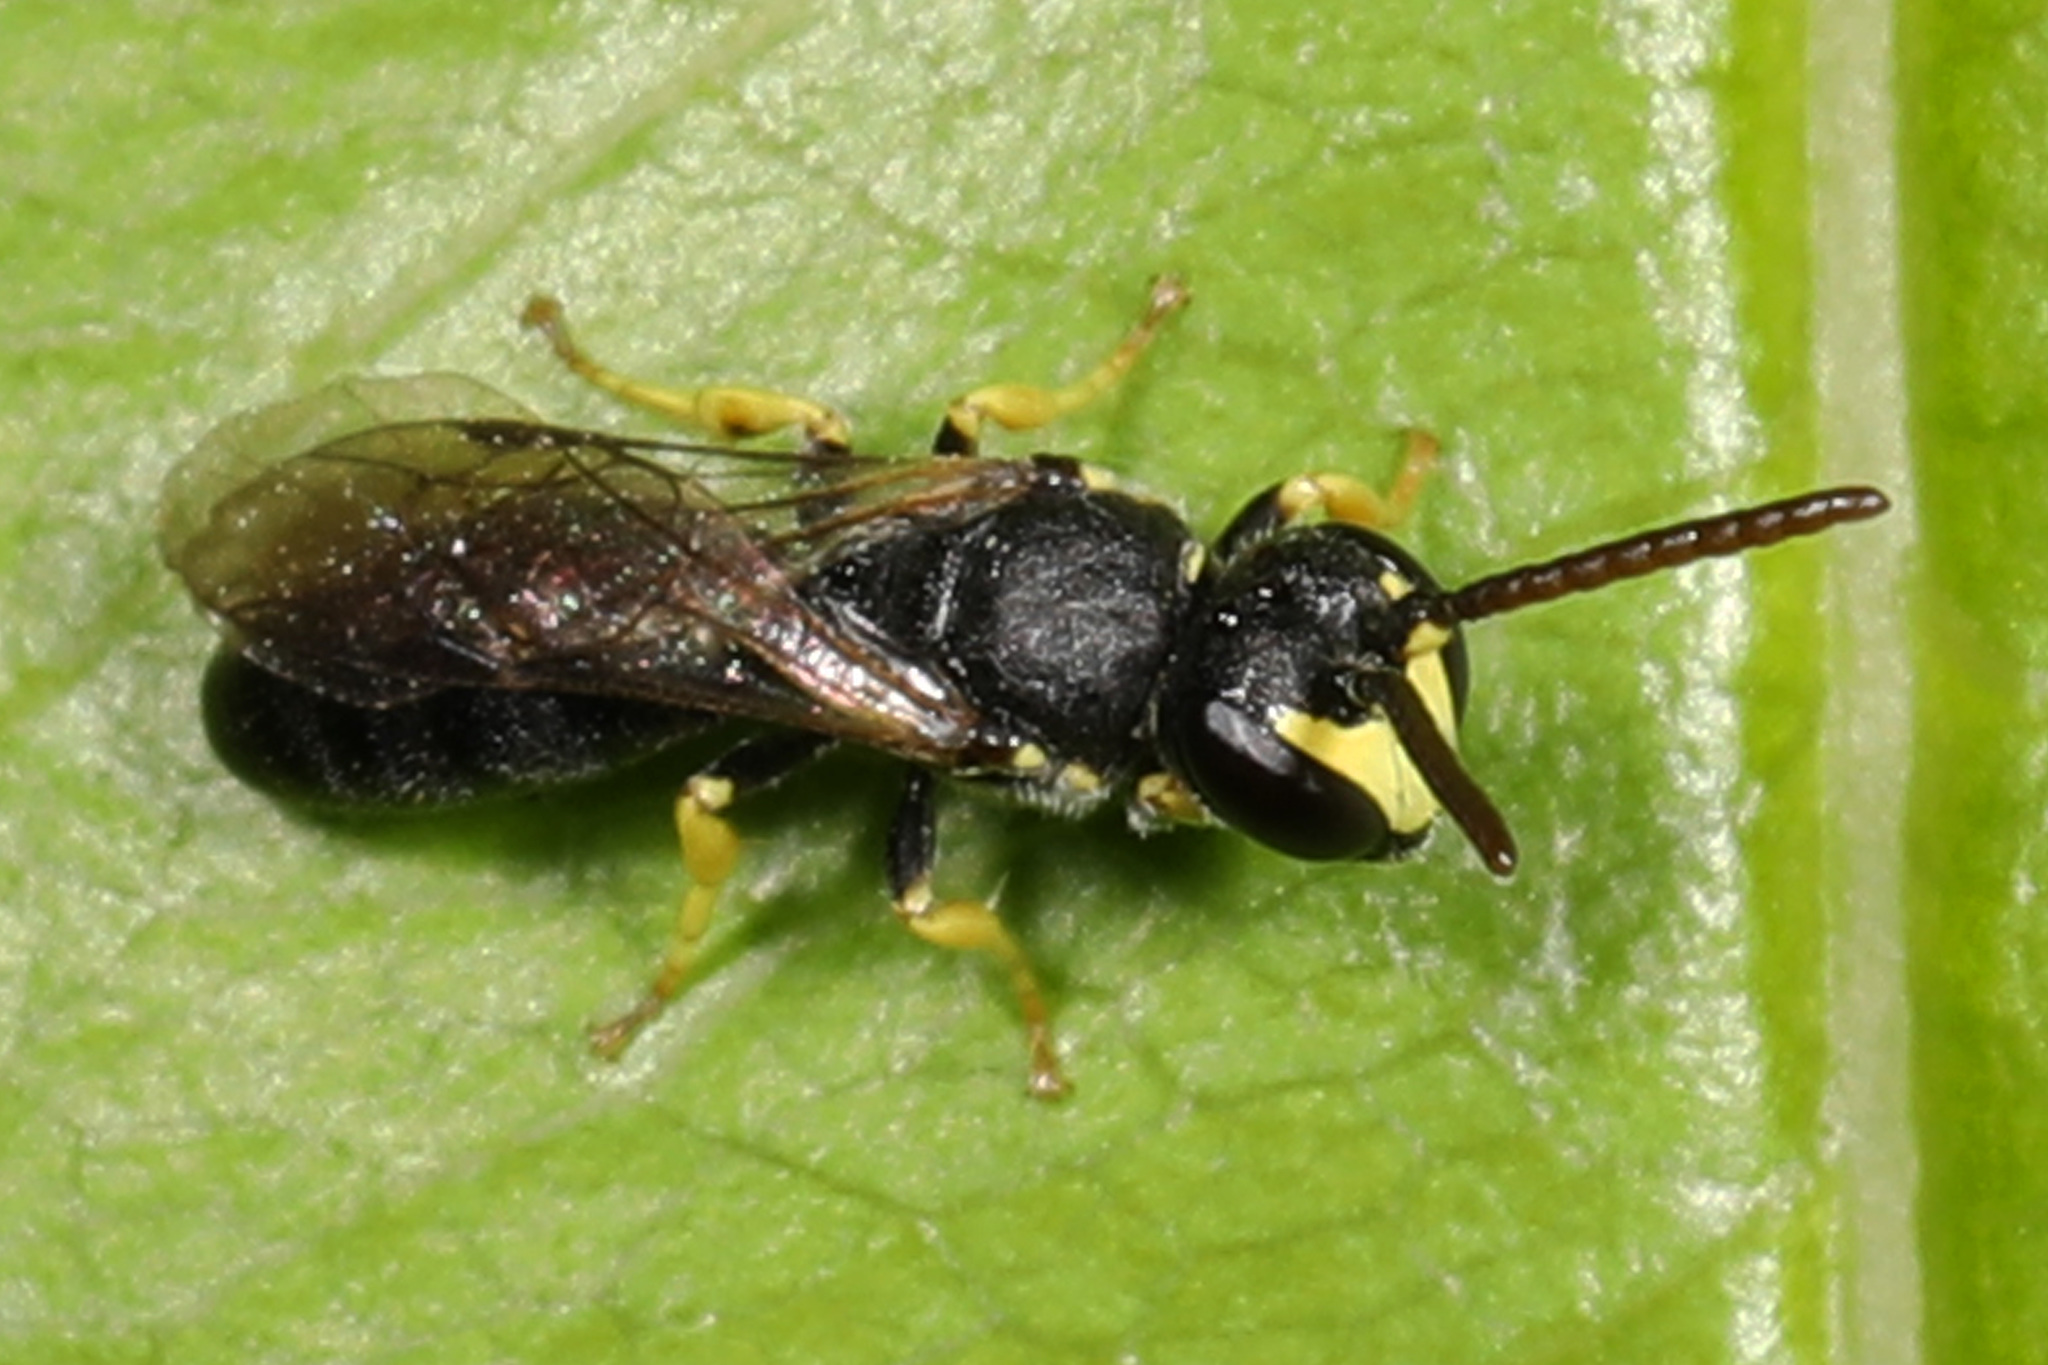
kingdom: Animalia
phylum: Arthropoda
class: Insecta
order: Hymenoptera
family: Colletidae
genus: Hylaeus
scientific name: Hylaeus affinis
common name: Eastern masked bee
